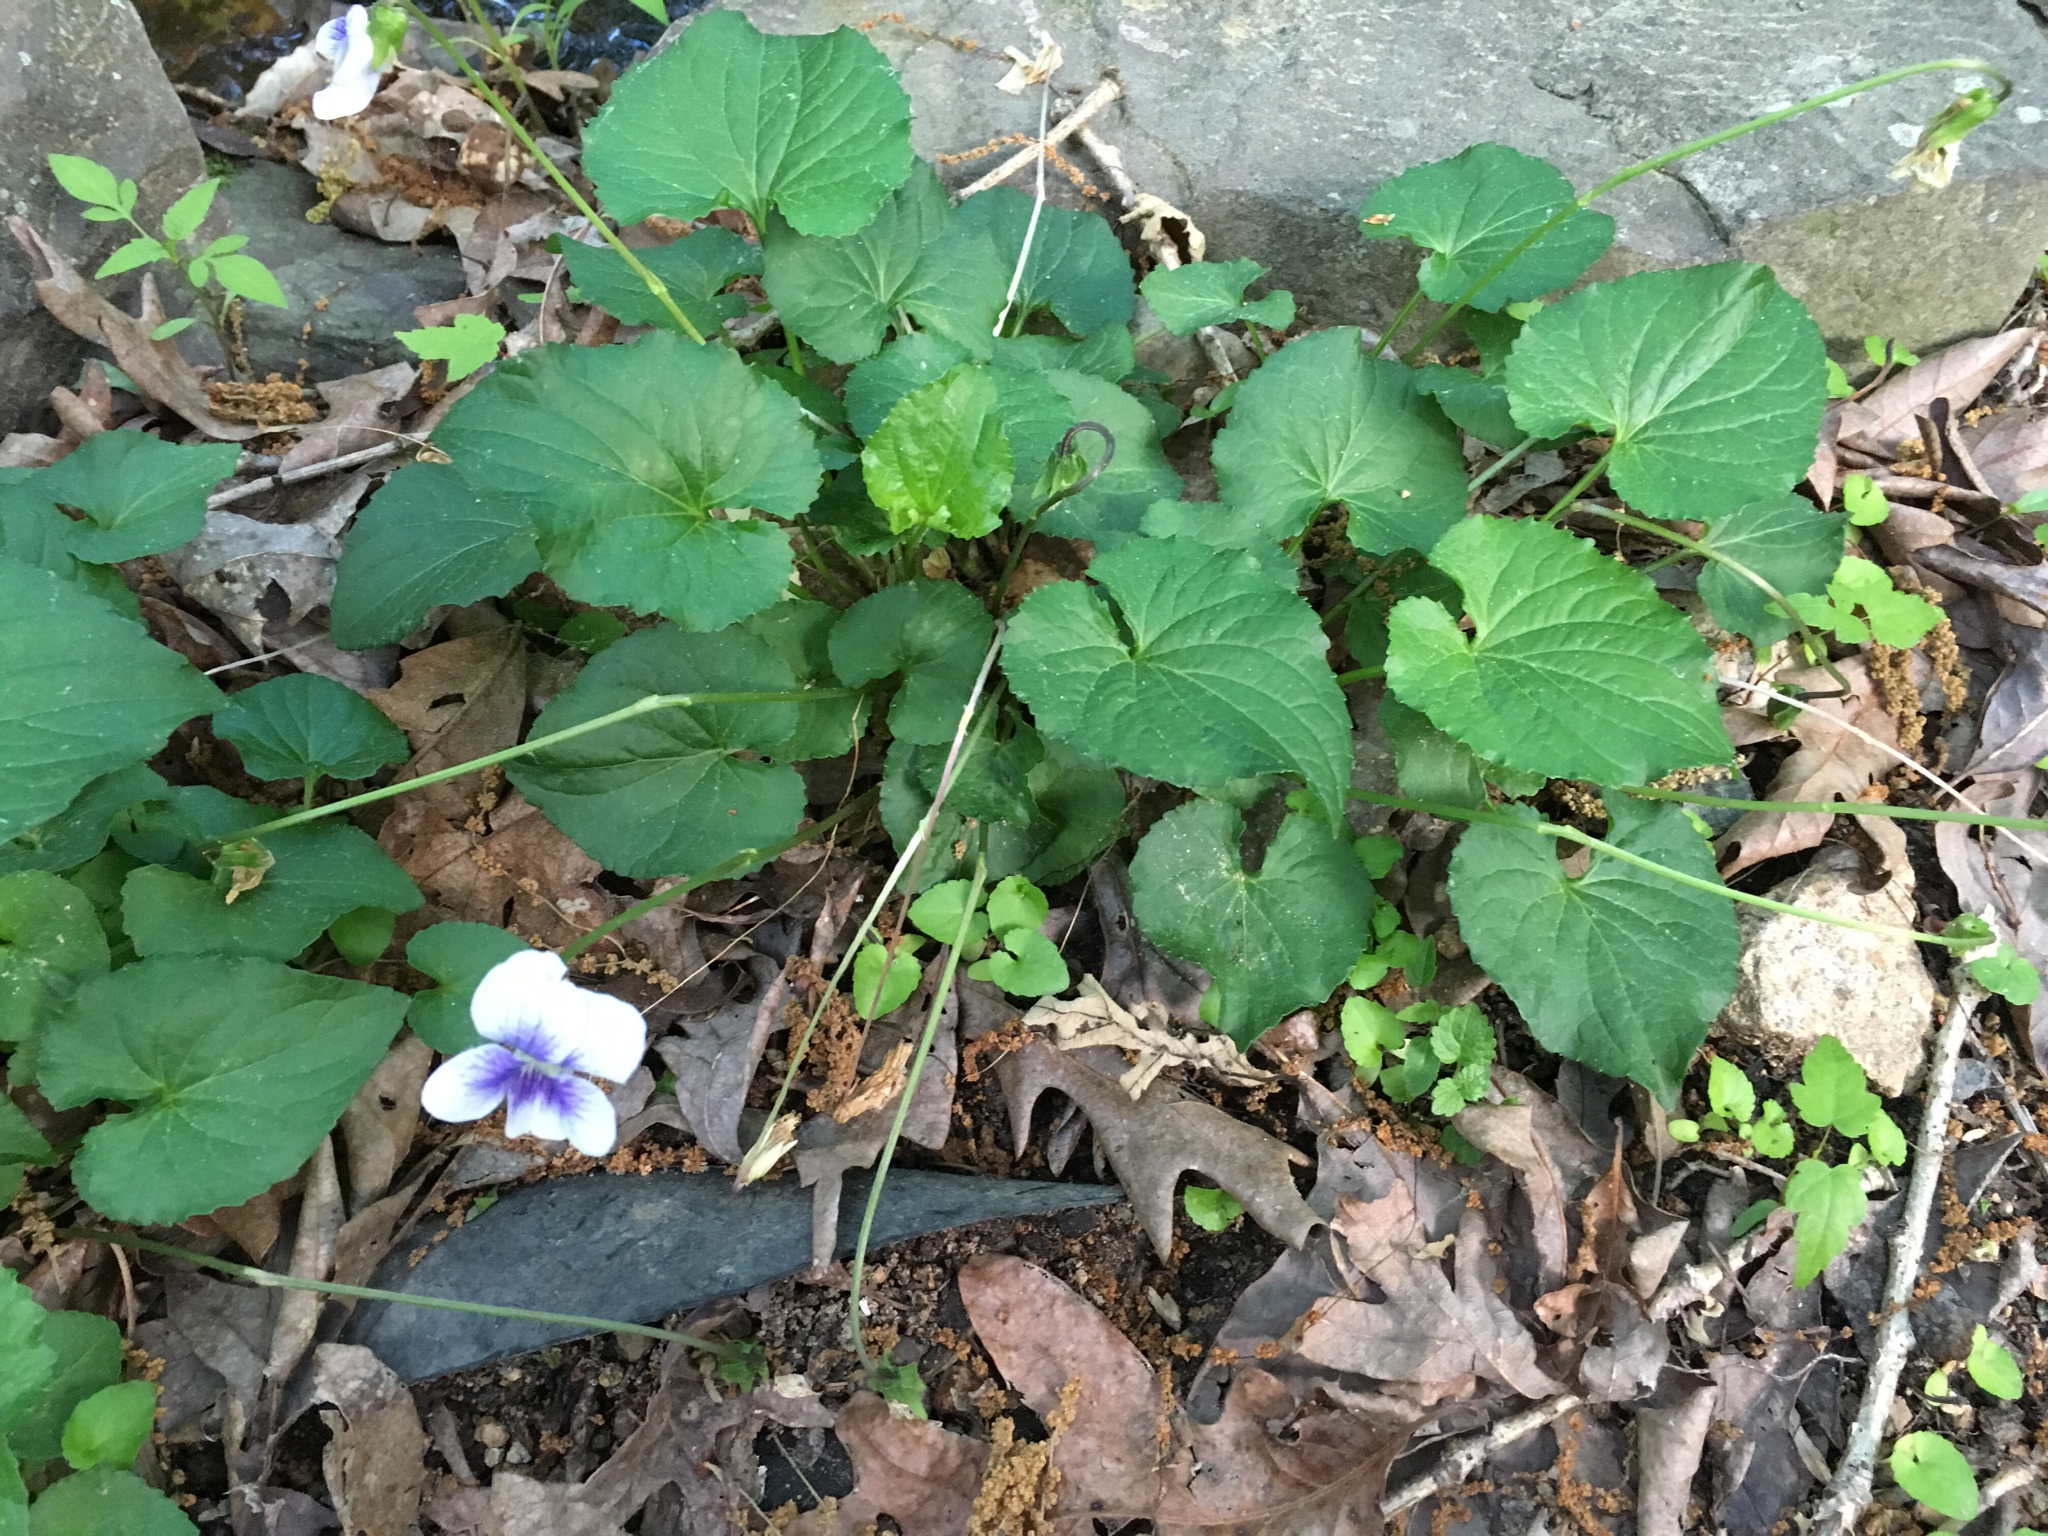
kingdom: Plantae
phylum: Tracheophyta
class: Magnoliopsida
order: Malpighiales
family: Violaceae
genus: Viola
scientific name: Viola sororia
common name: Dooryard violet
